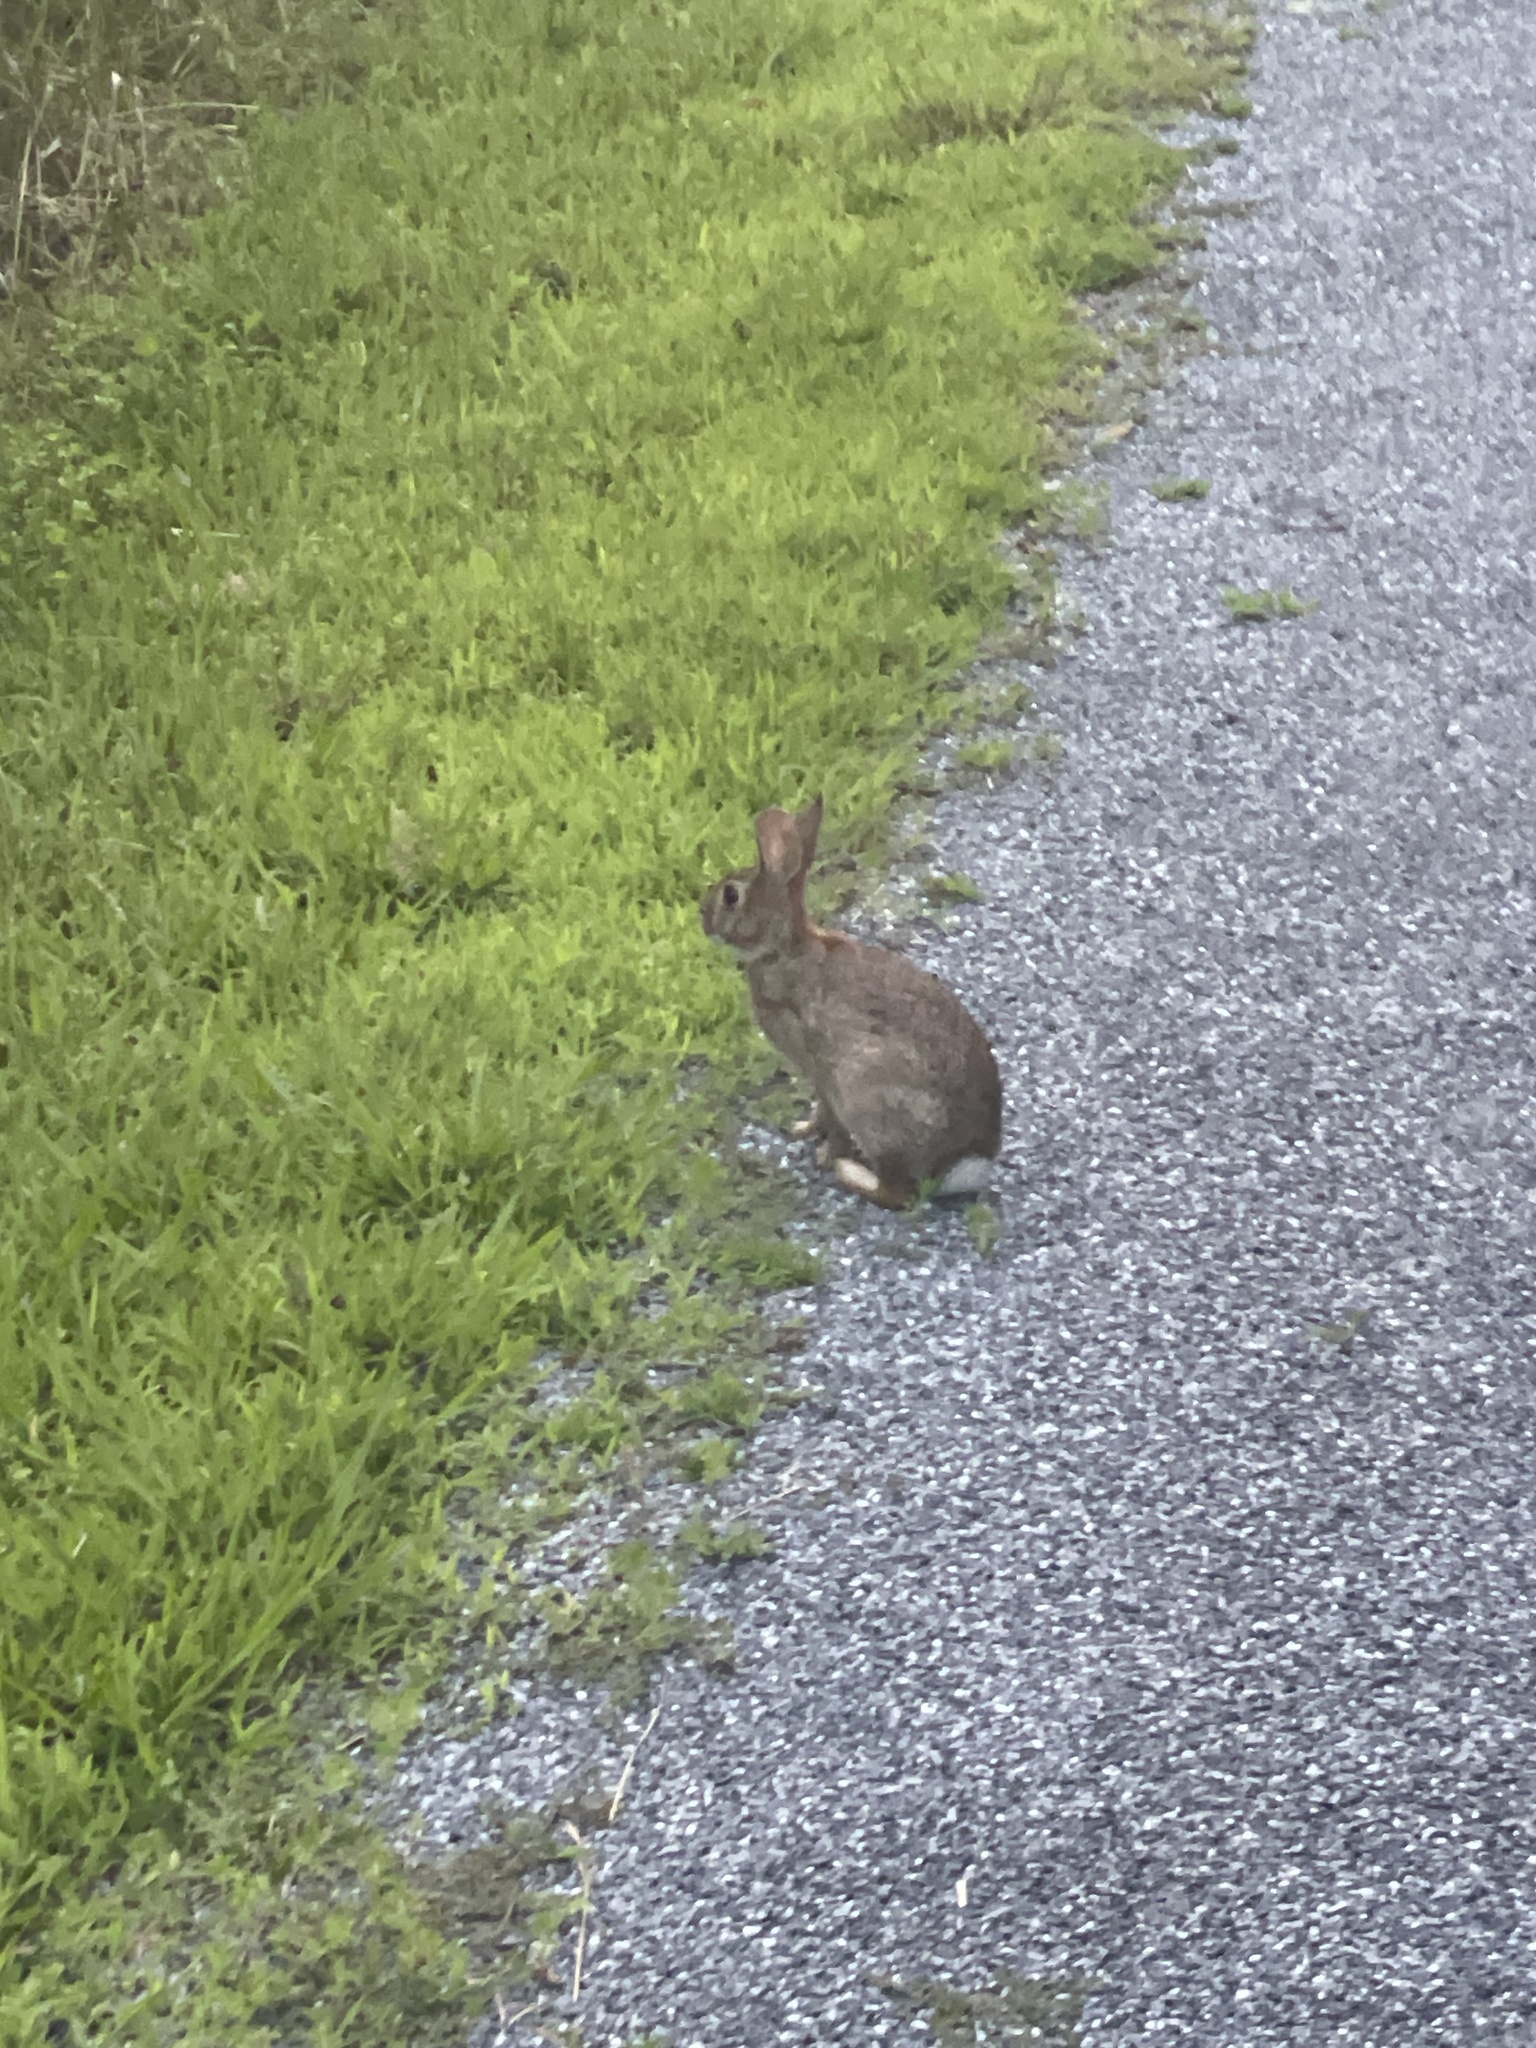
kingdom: Animalia
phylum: Chordata
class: Mammalia
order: Lagomorpha
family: Leporidae
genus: Sylvilagus
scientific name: Sylvilagus floridanus
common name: Eastern cottontail
